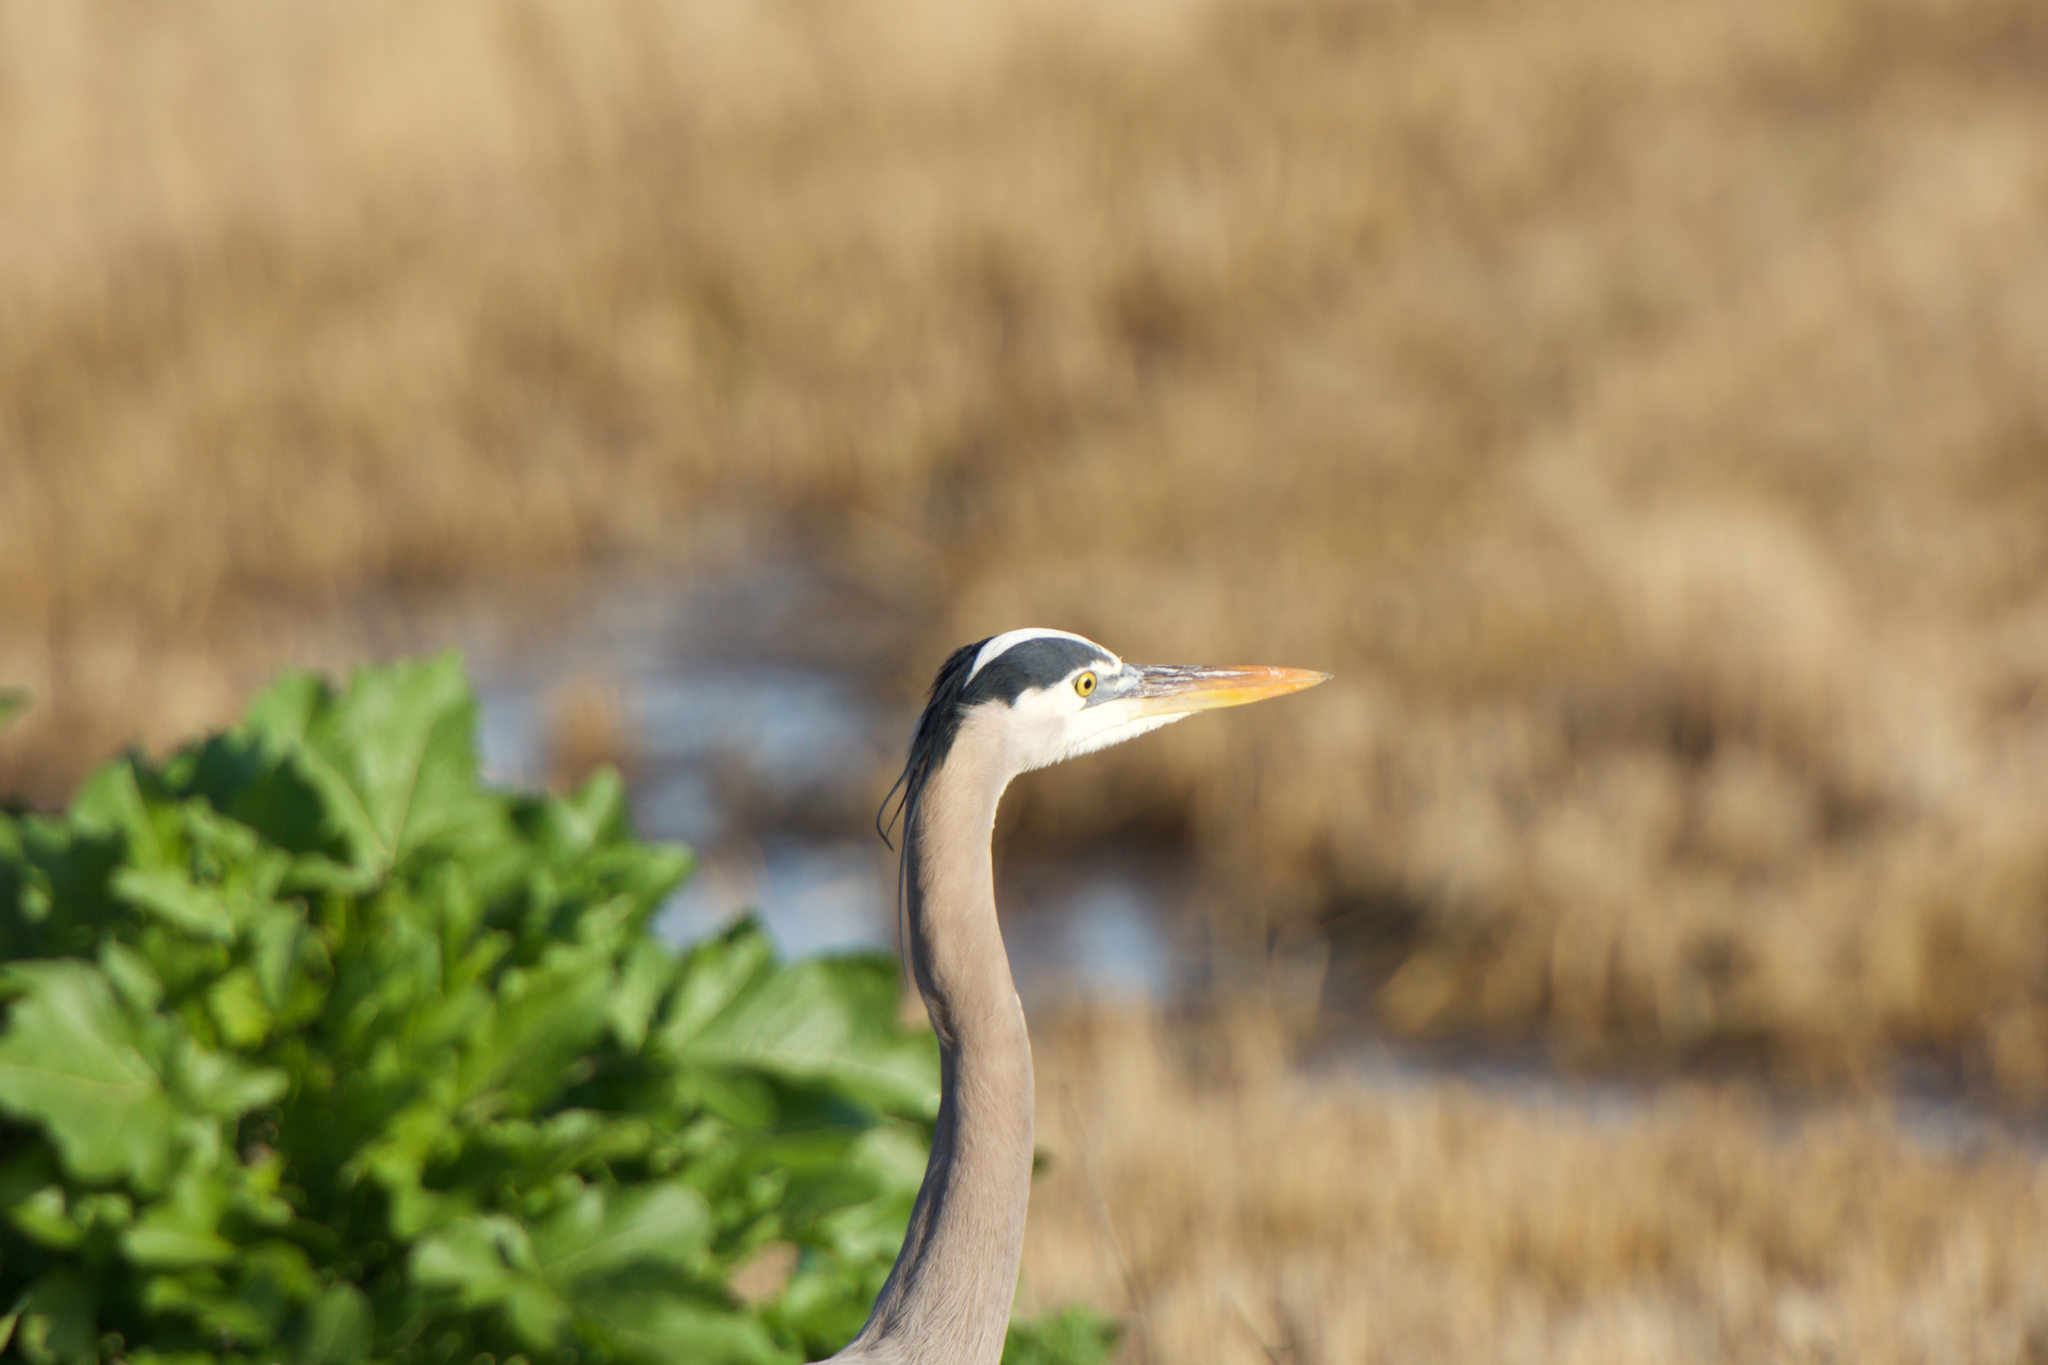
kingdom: Animalia
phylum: Chordata
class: Aves
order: Pelecaniformes
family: Ardeidae
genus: Ardea
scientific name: Ardea herodias
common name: Great blue heron
